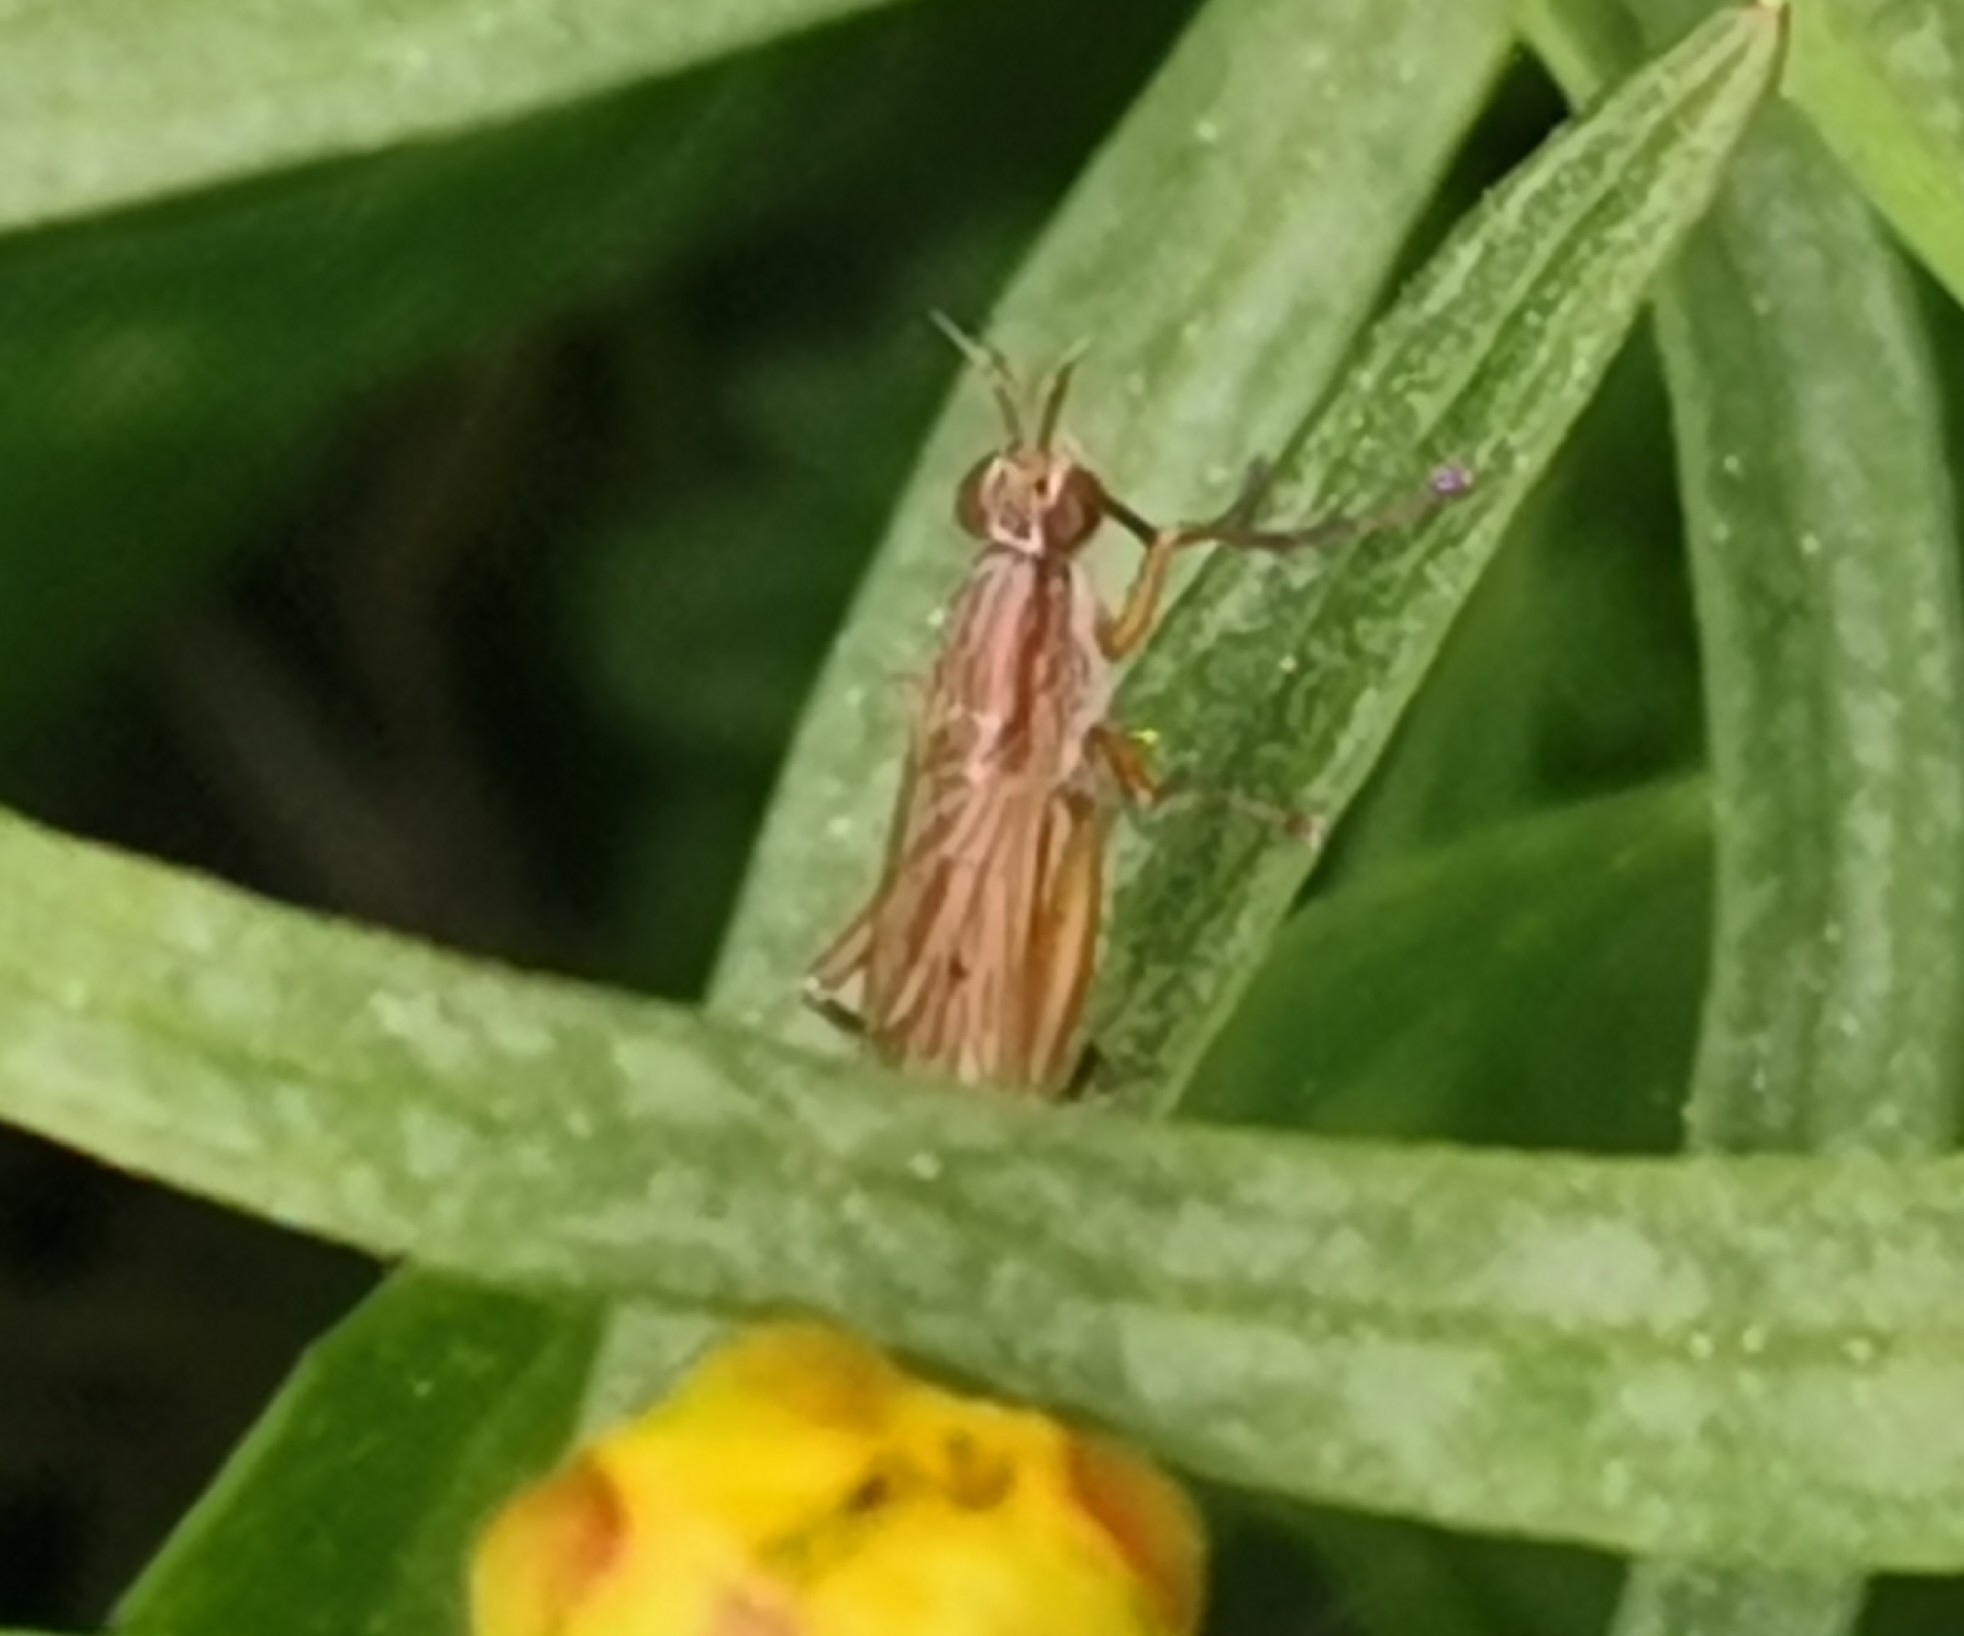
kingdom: Animalia
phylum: Arthropoda
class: Insecta
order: Diptera
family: Sciomyzidae
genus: Sepedon
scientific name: Sepedon spinipes
